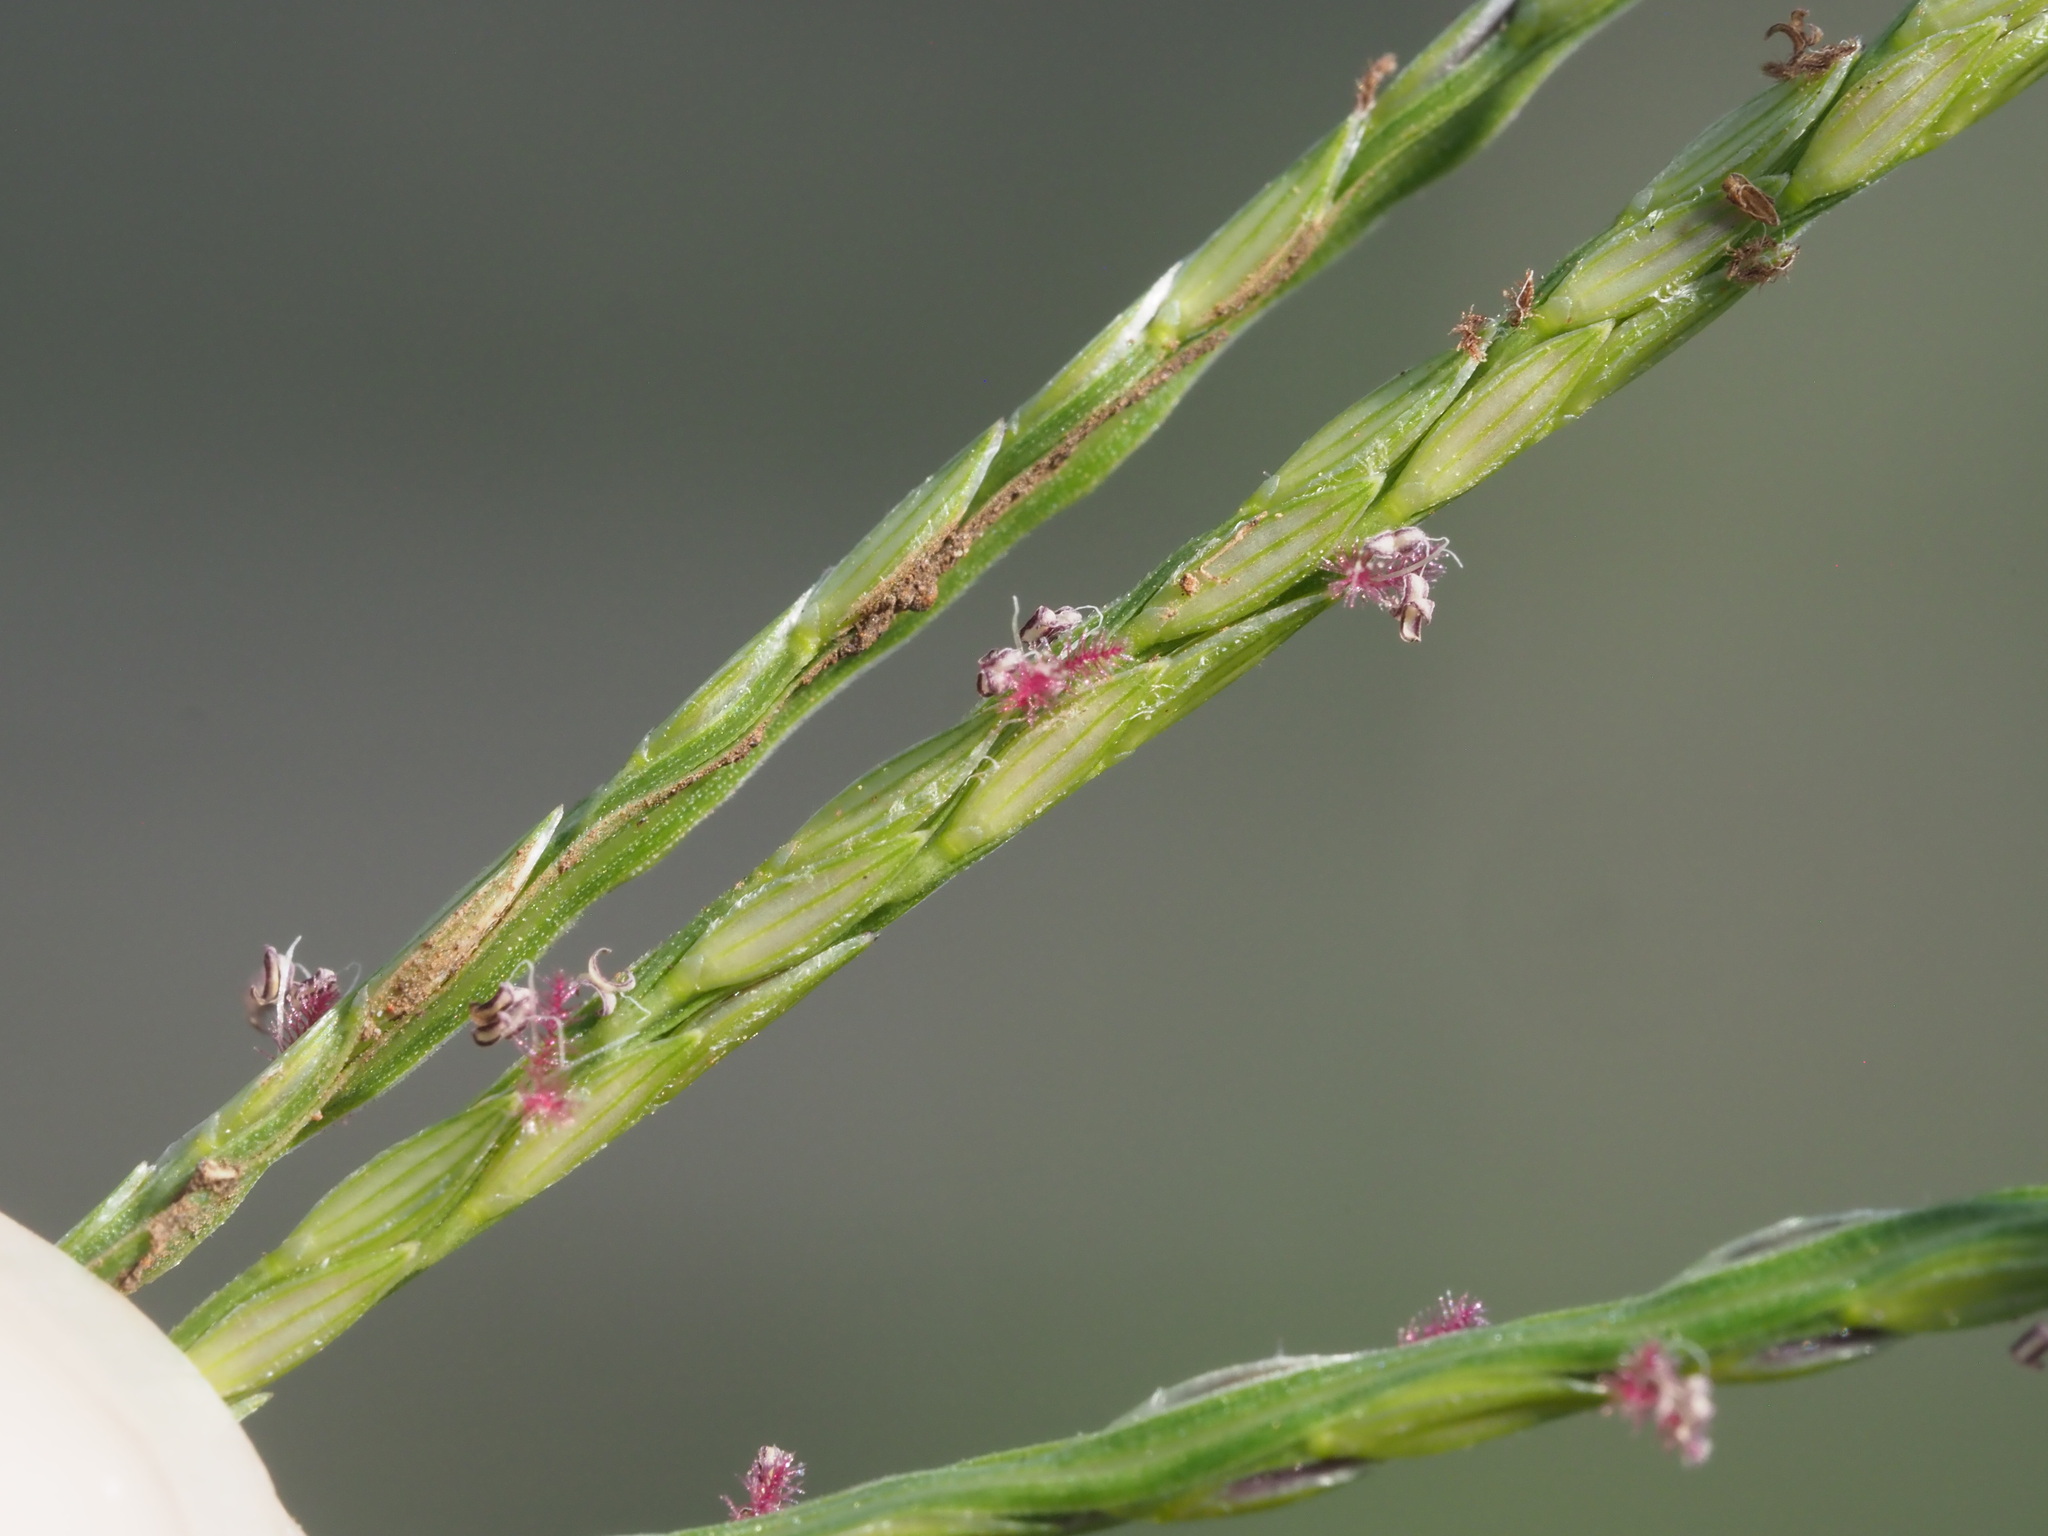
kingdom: Plantae
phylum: Tracheophyta
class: Liliopsida
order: Poales
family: Poaceae
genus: Digitaria
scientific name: Digitaria ciliaris
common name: Tropical finger-grass
